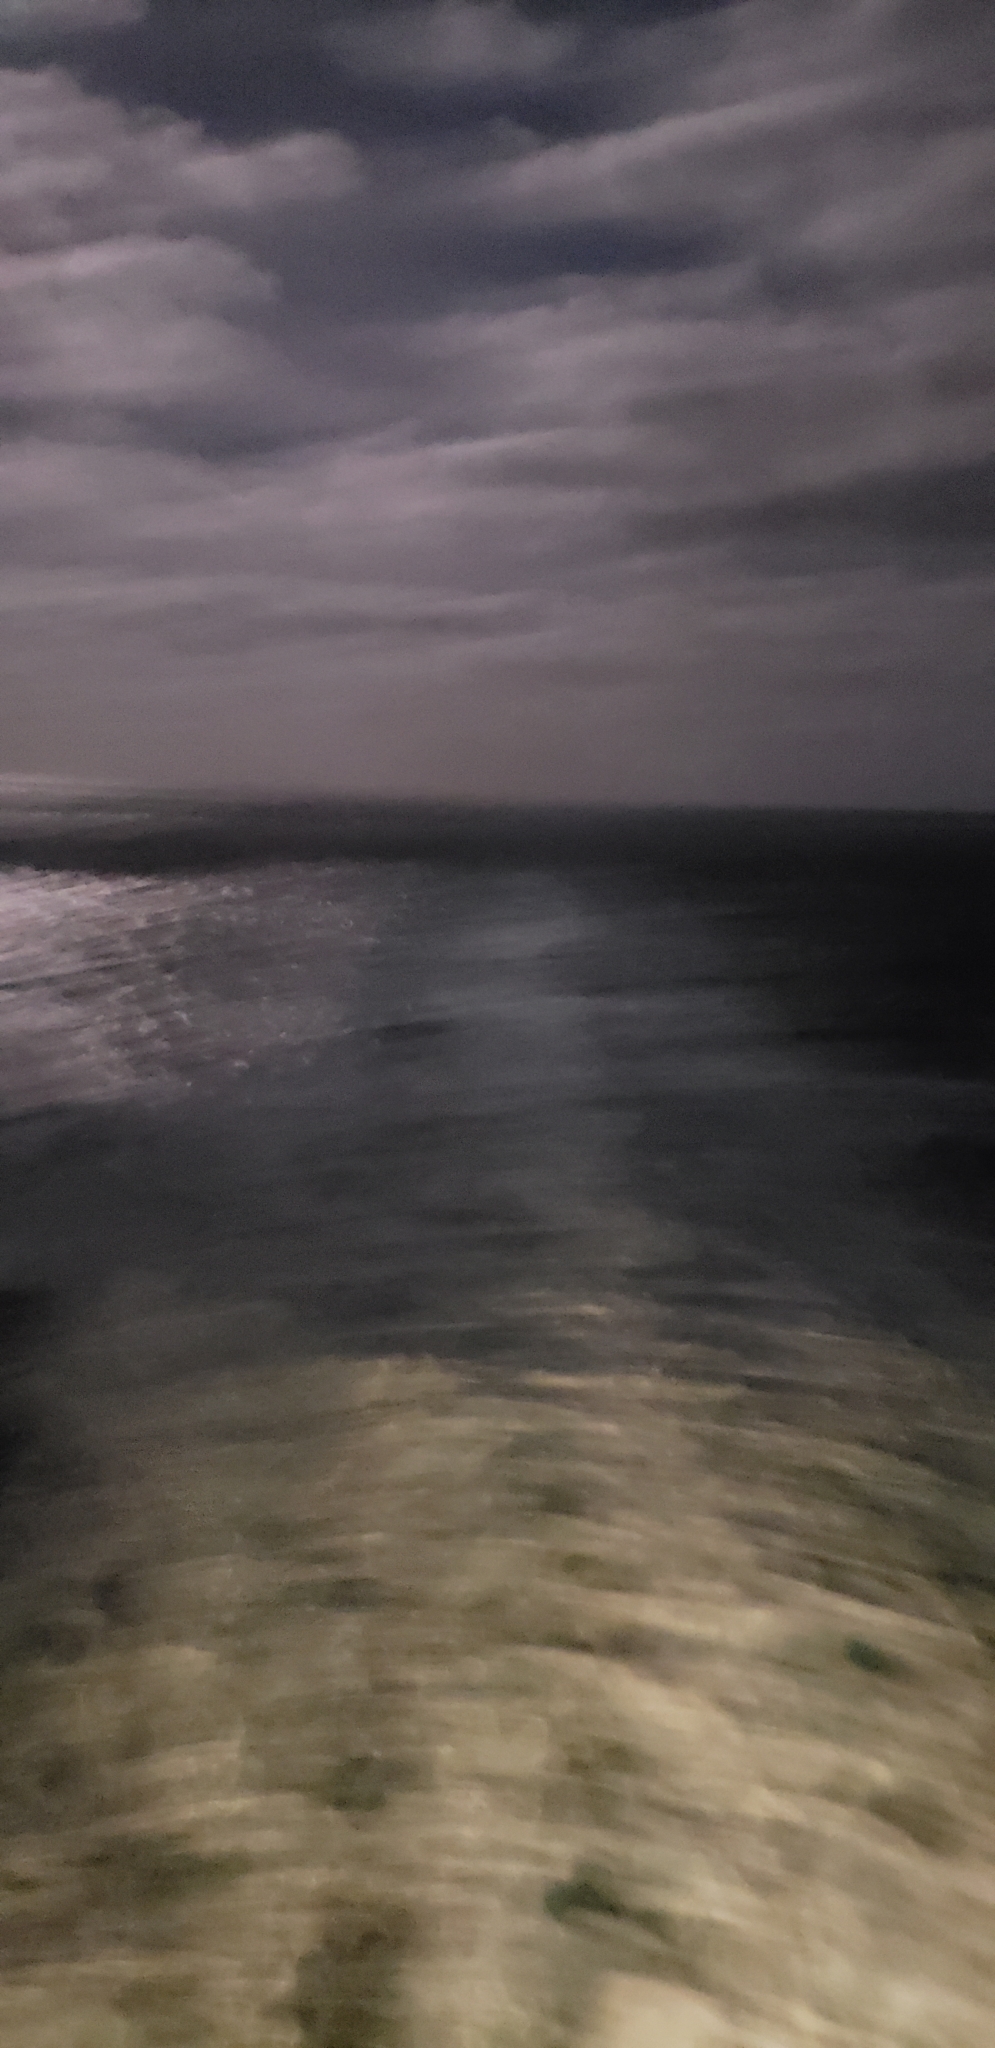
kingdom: Animalia
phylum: Chordata
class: Aves
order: Pelecaniformes
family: Pelecanidae
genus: Pelecanus
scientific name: Pelecanus occidentalis
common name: Brown pelican
